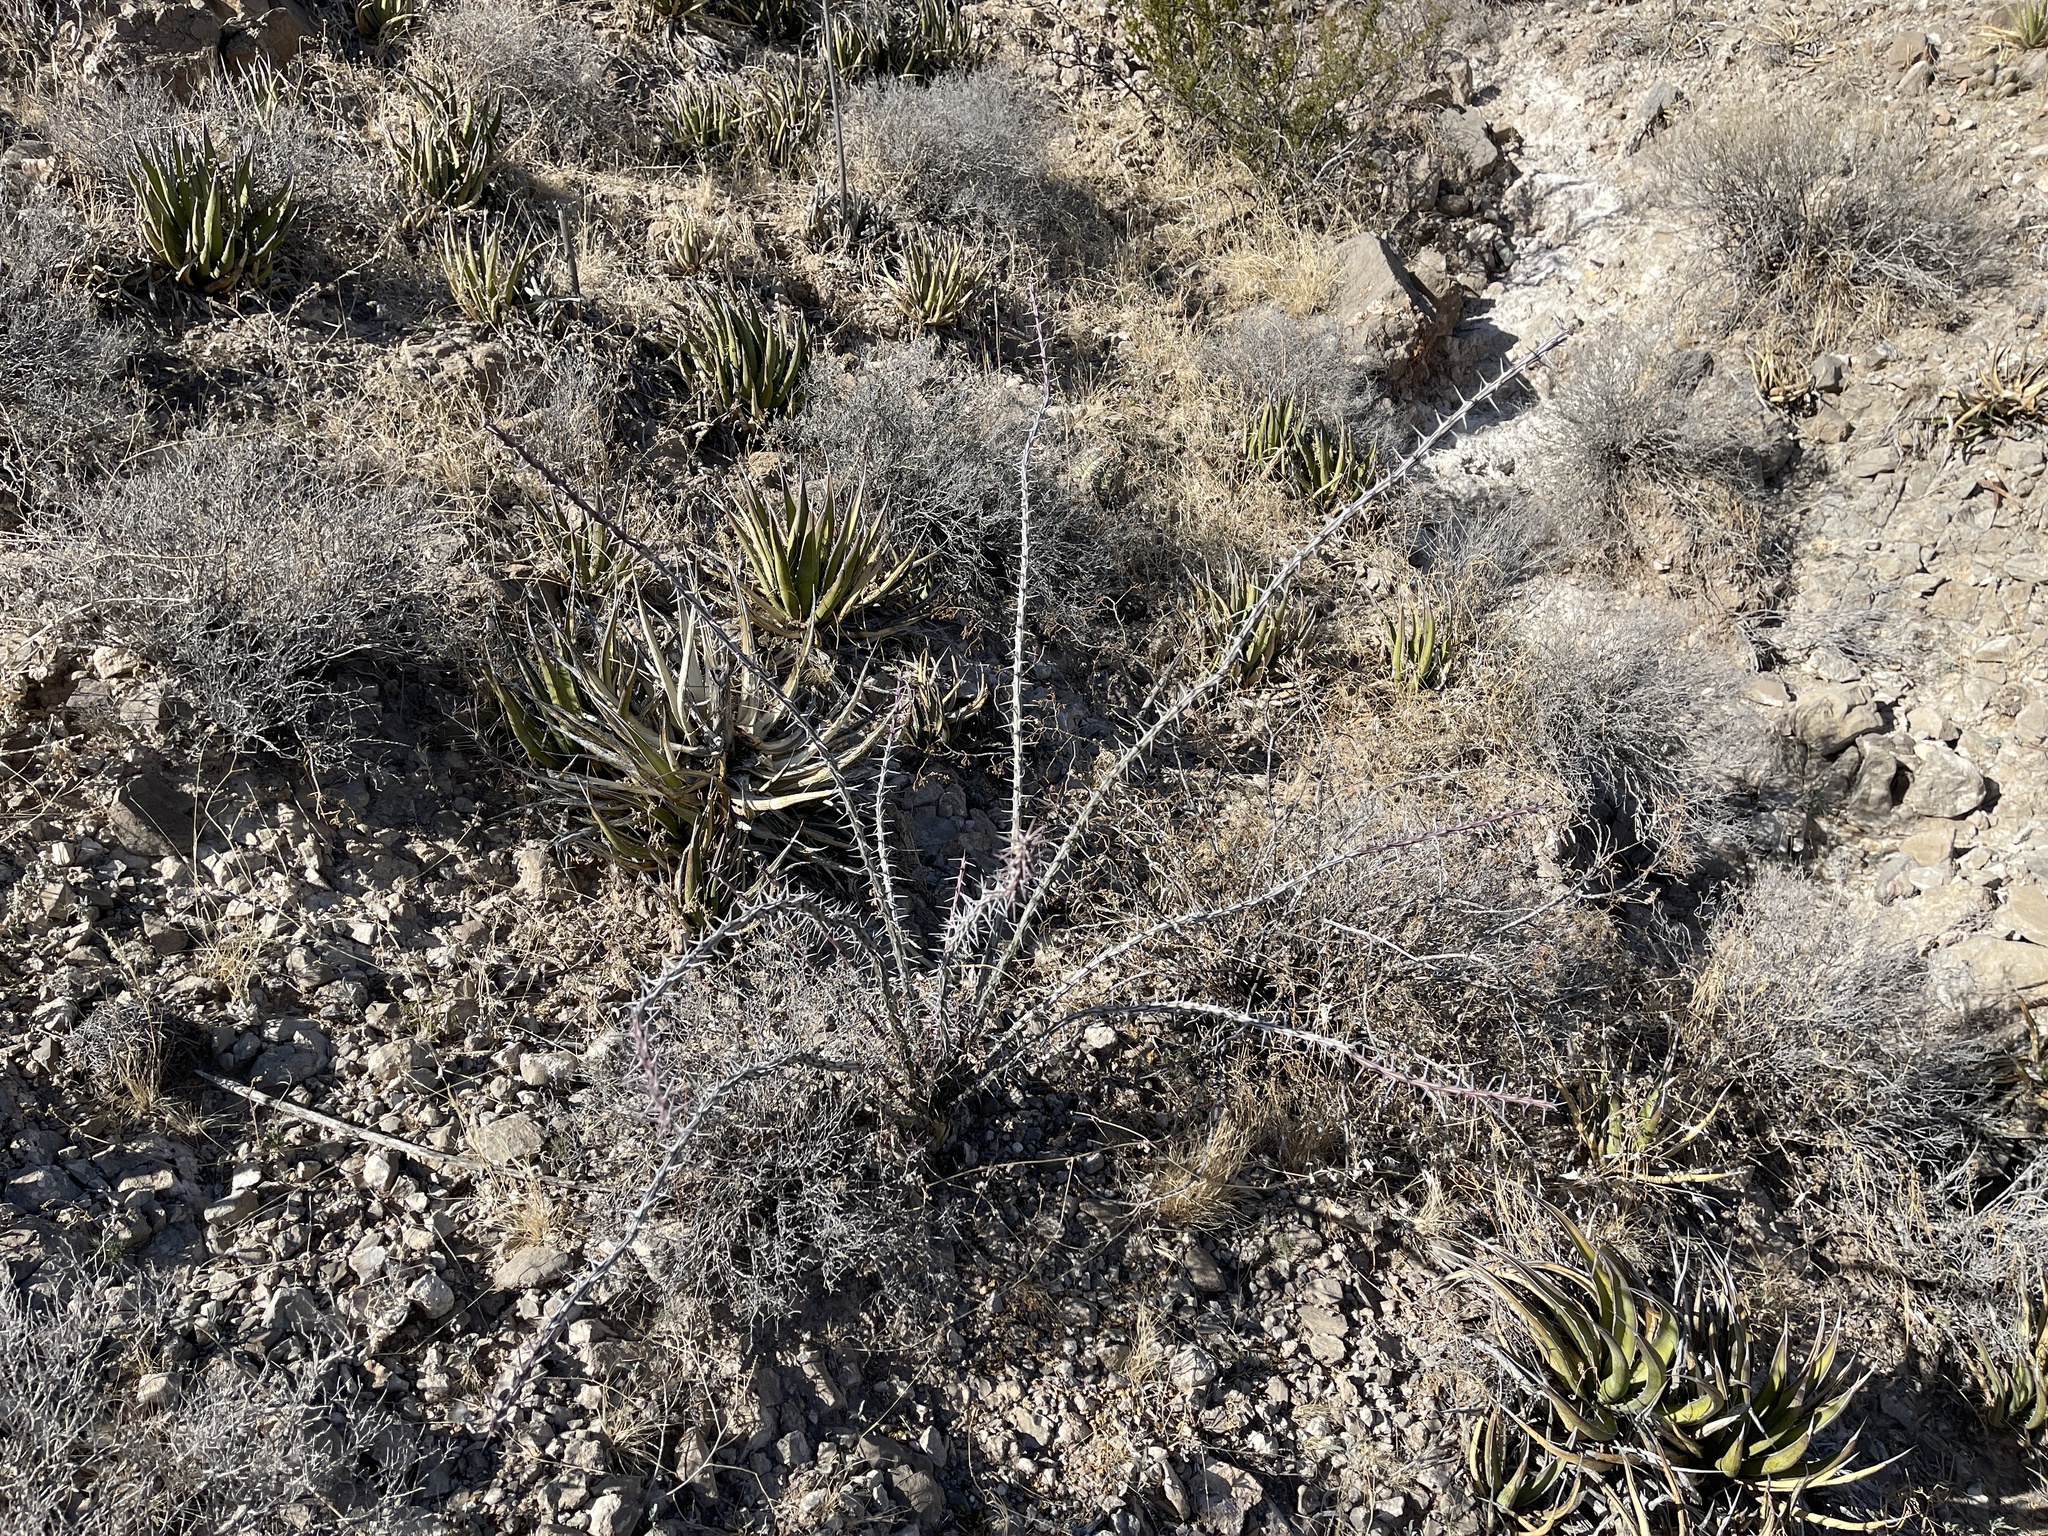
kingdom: Plantae
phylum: Tracheophyta
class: Magnoliopsida
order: Ericales
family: Fouquieriaceae
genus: Fouquieria
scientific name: Fouquieria splendens
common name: Vine-cactus
